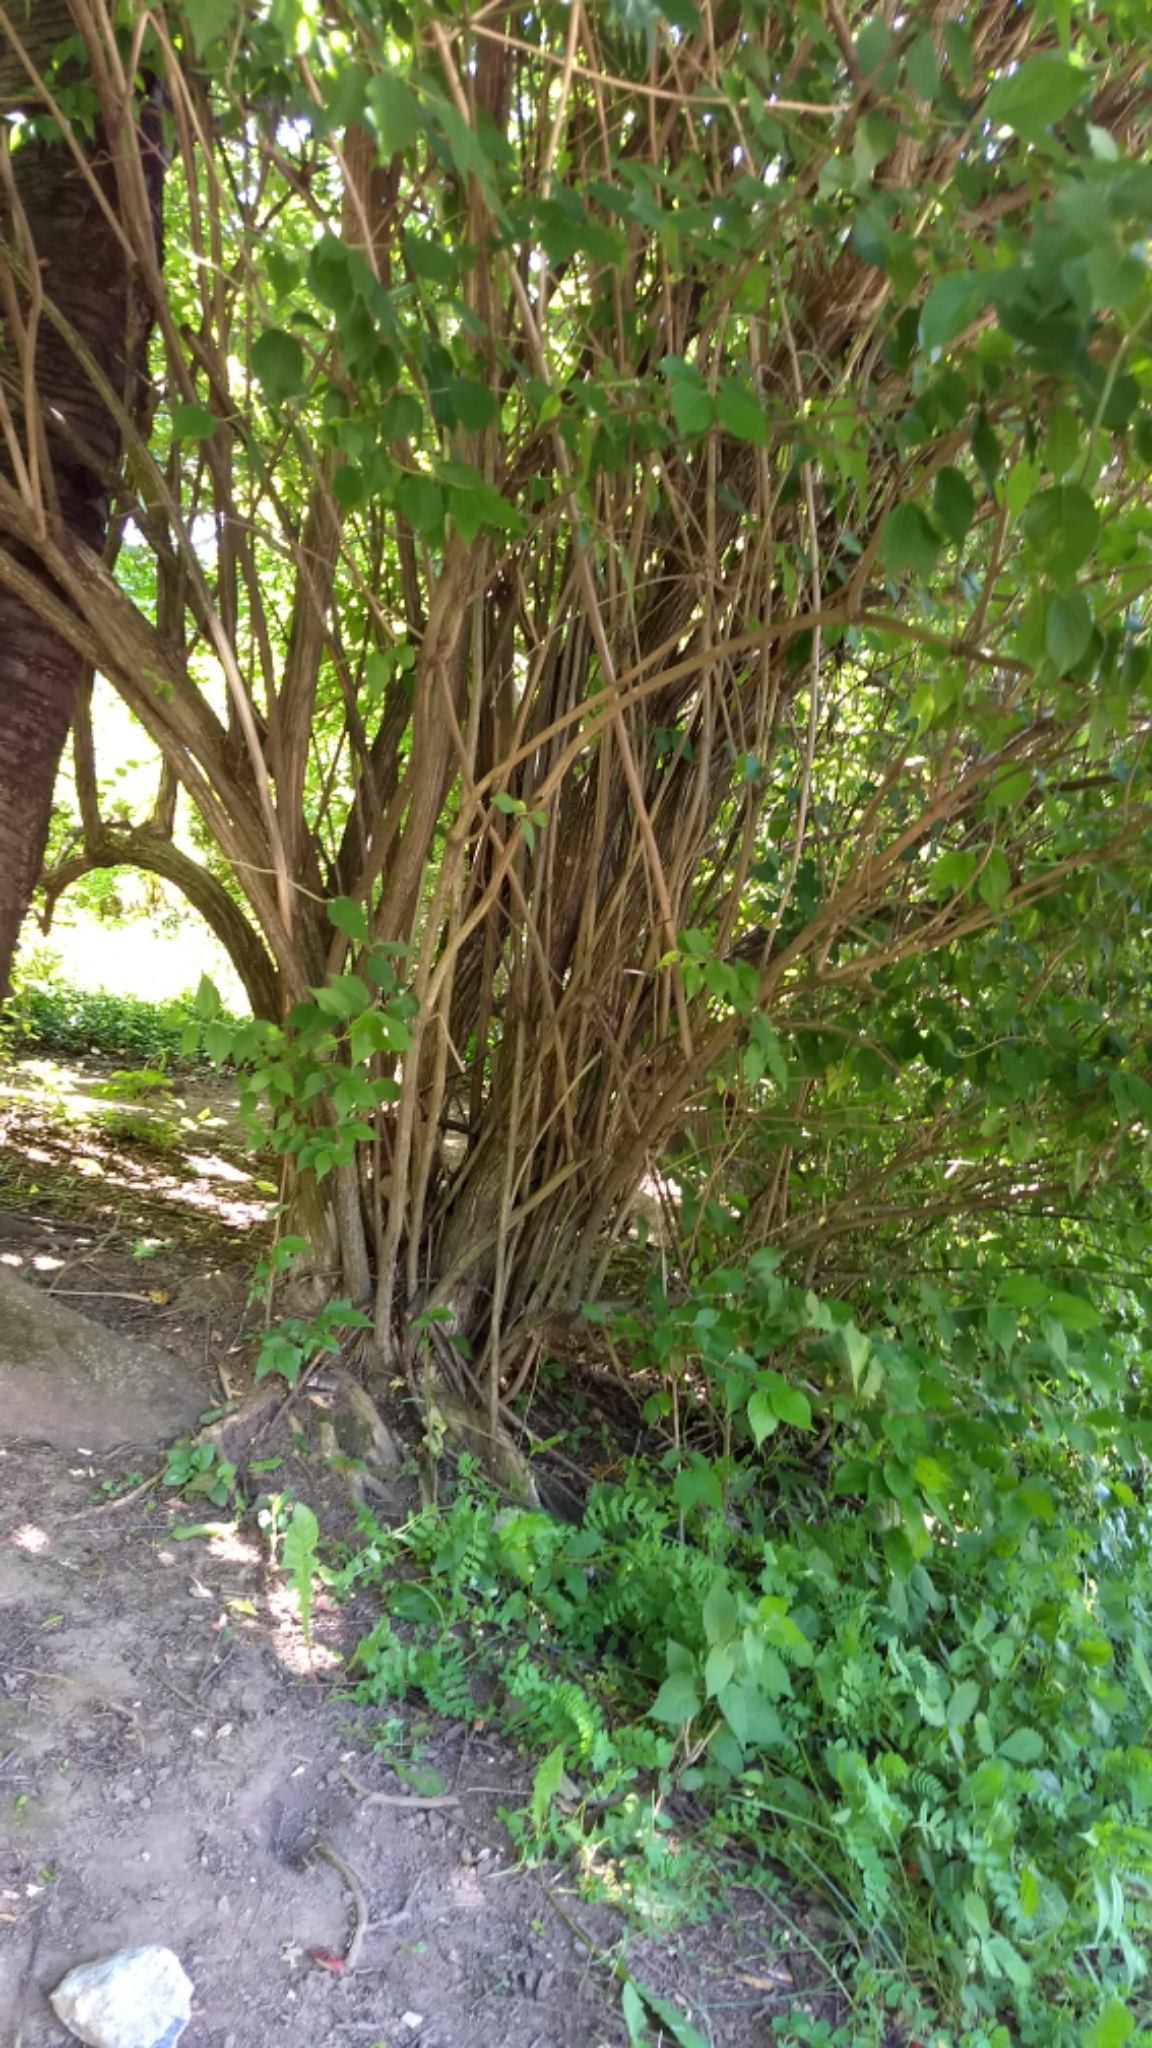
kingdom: Plantae
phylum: Tracheophyta
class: Magnoliopsida
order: Dipsacales
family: Caprifoliaceae
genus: Lonicera
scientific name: Lonicera maackii
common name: Amur honeysuckle
